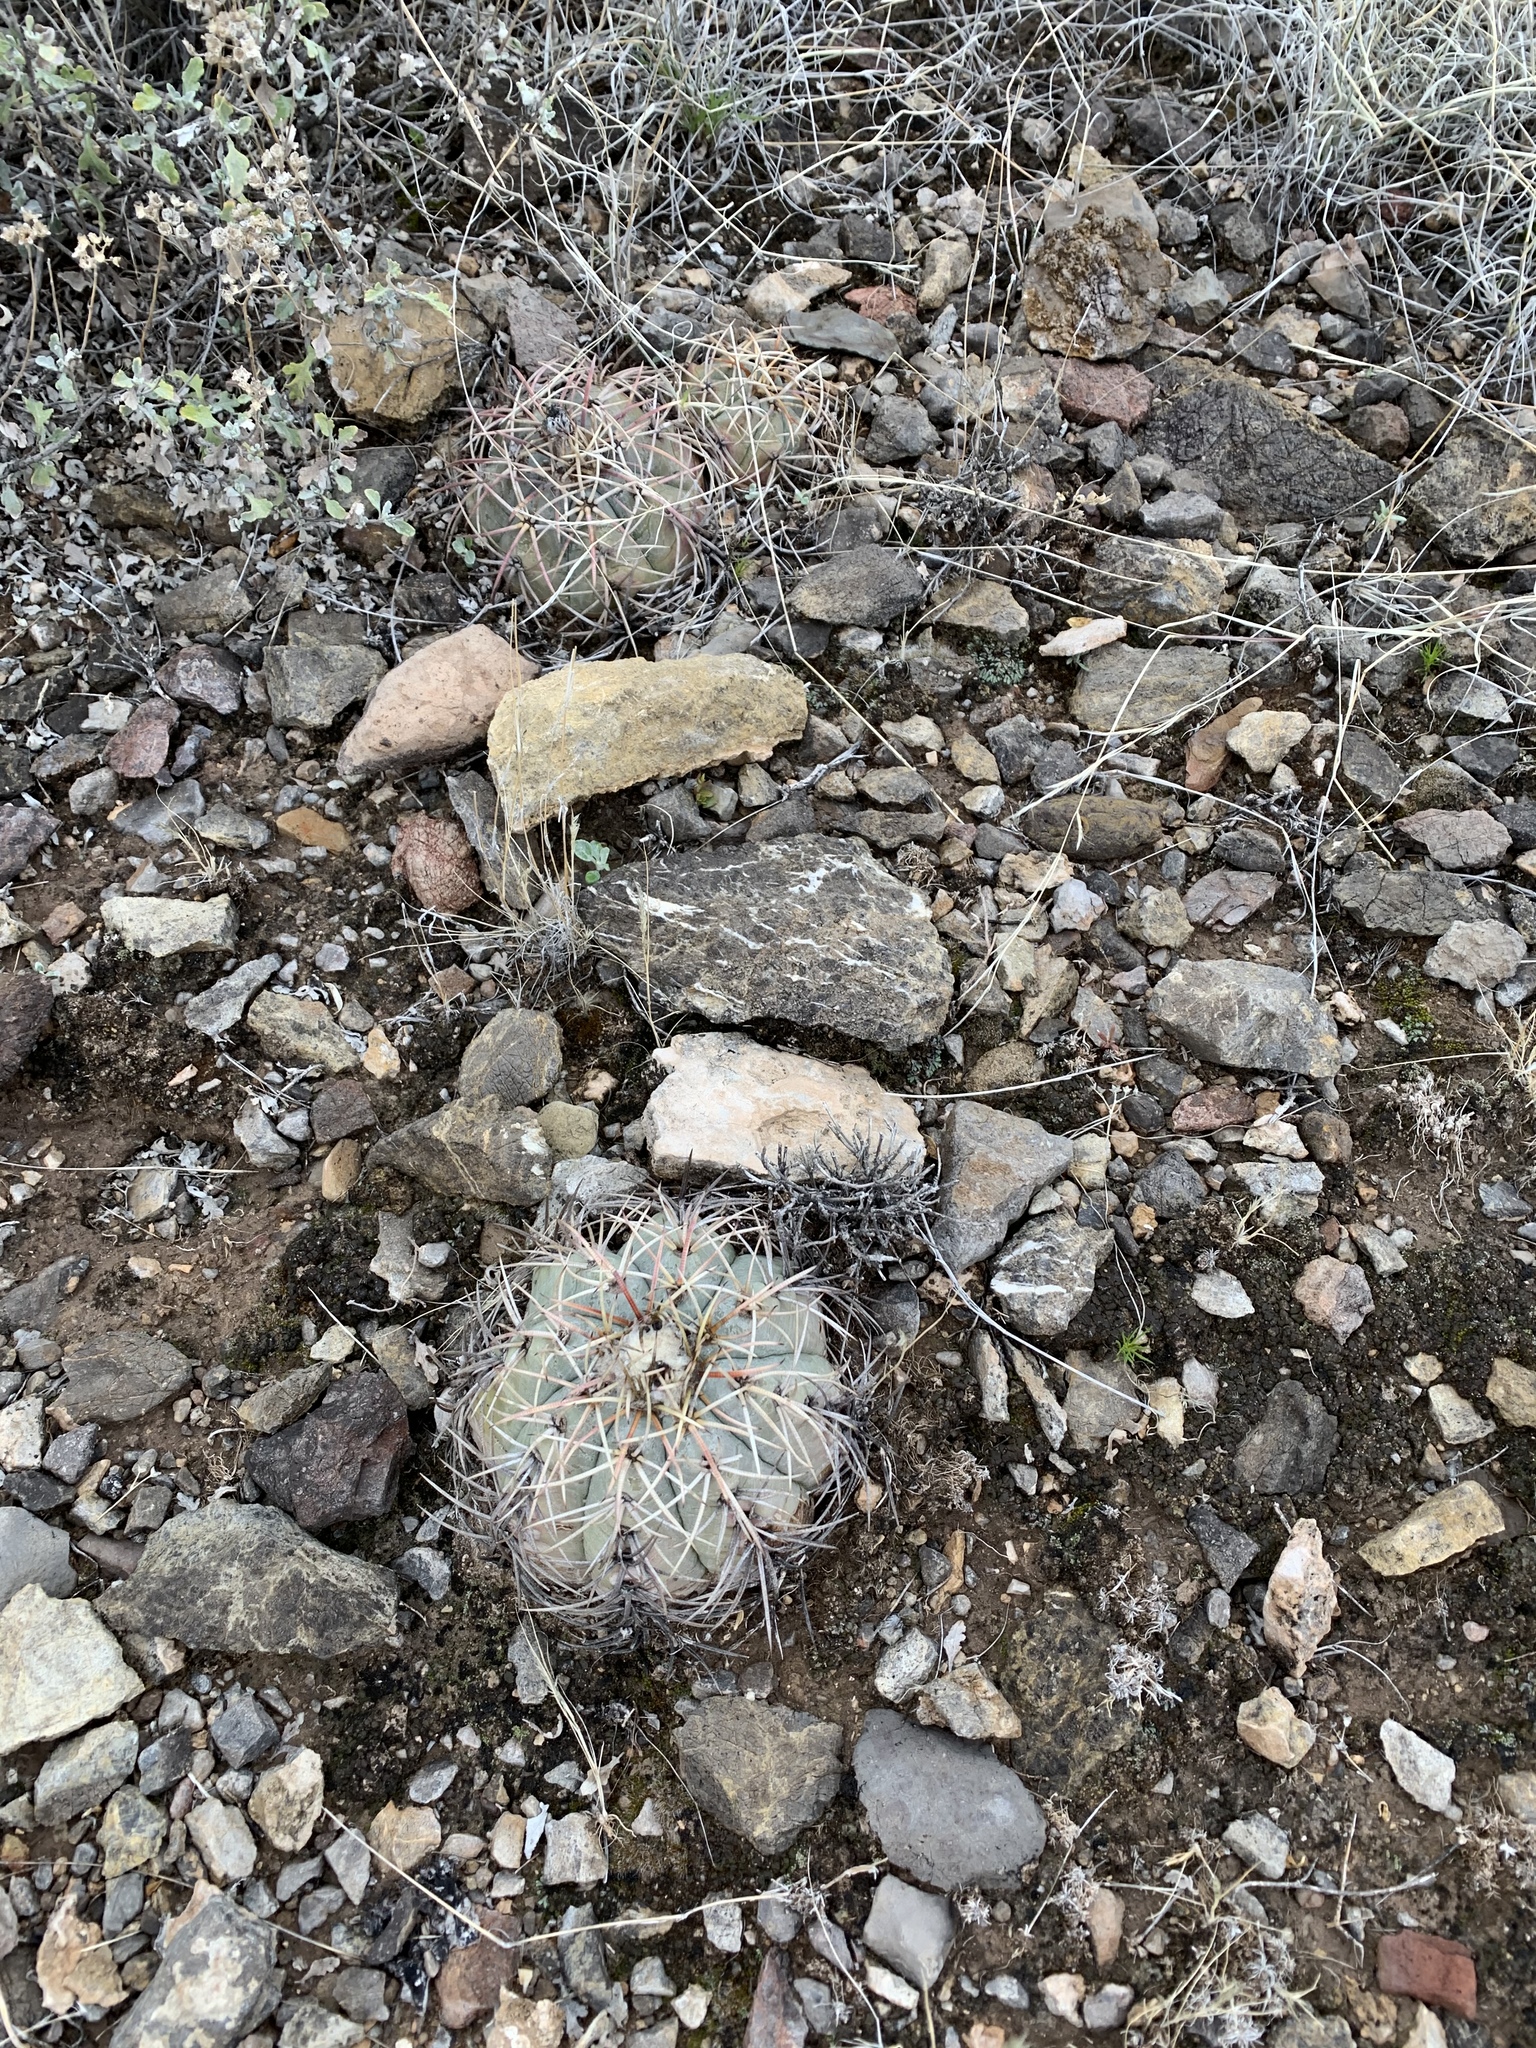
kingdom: Plantae
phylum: Tracheophyta
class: Magnoliopsida
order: Caryophyllales
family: Cactaceae
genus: Echinocactus
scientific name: Echinocactus horizonthalonius
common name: Devilshead
